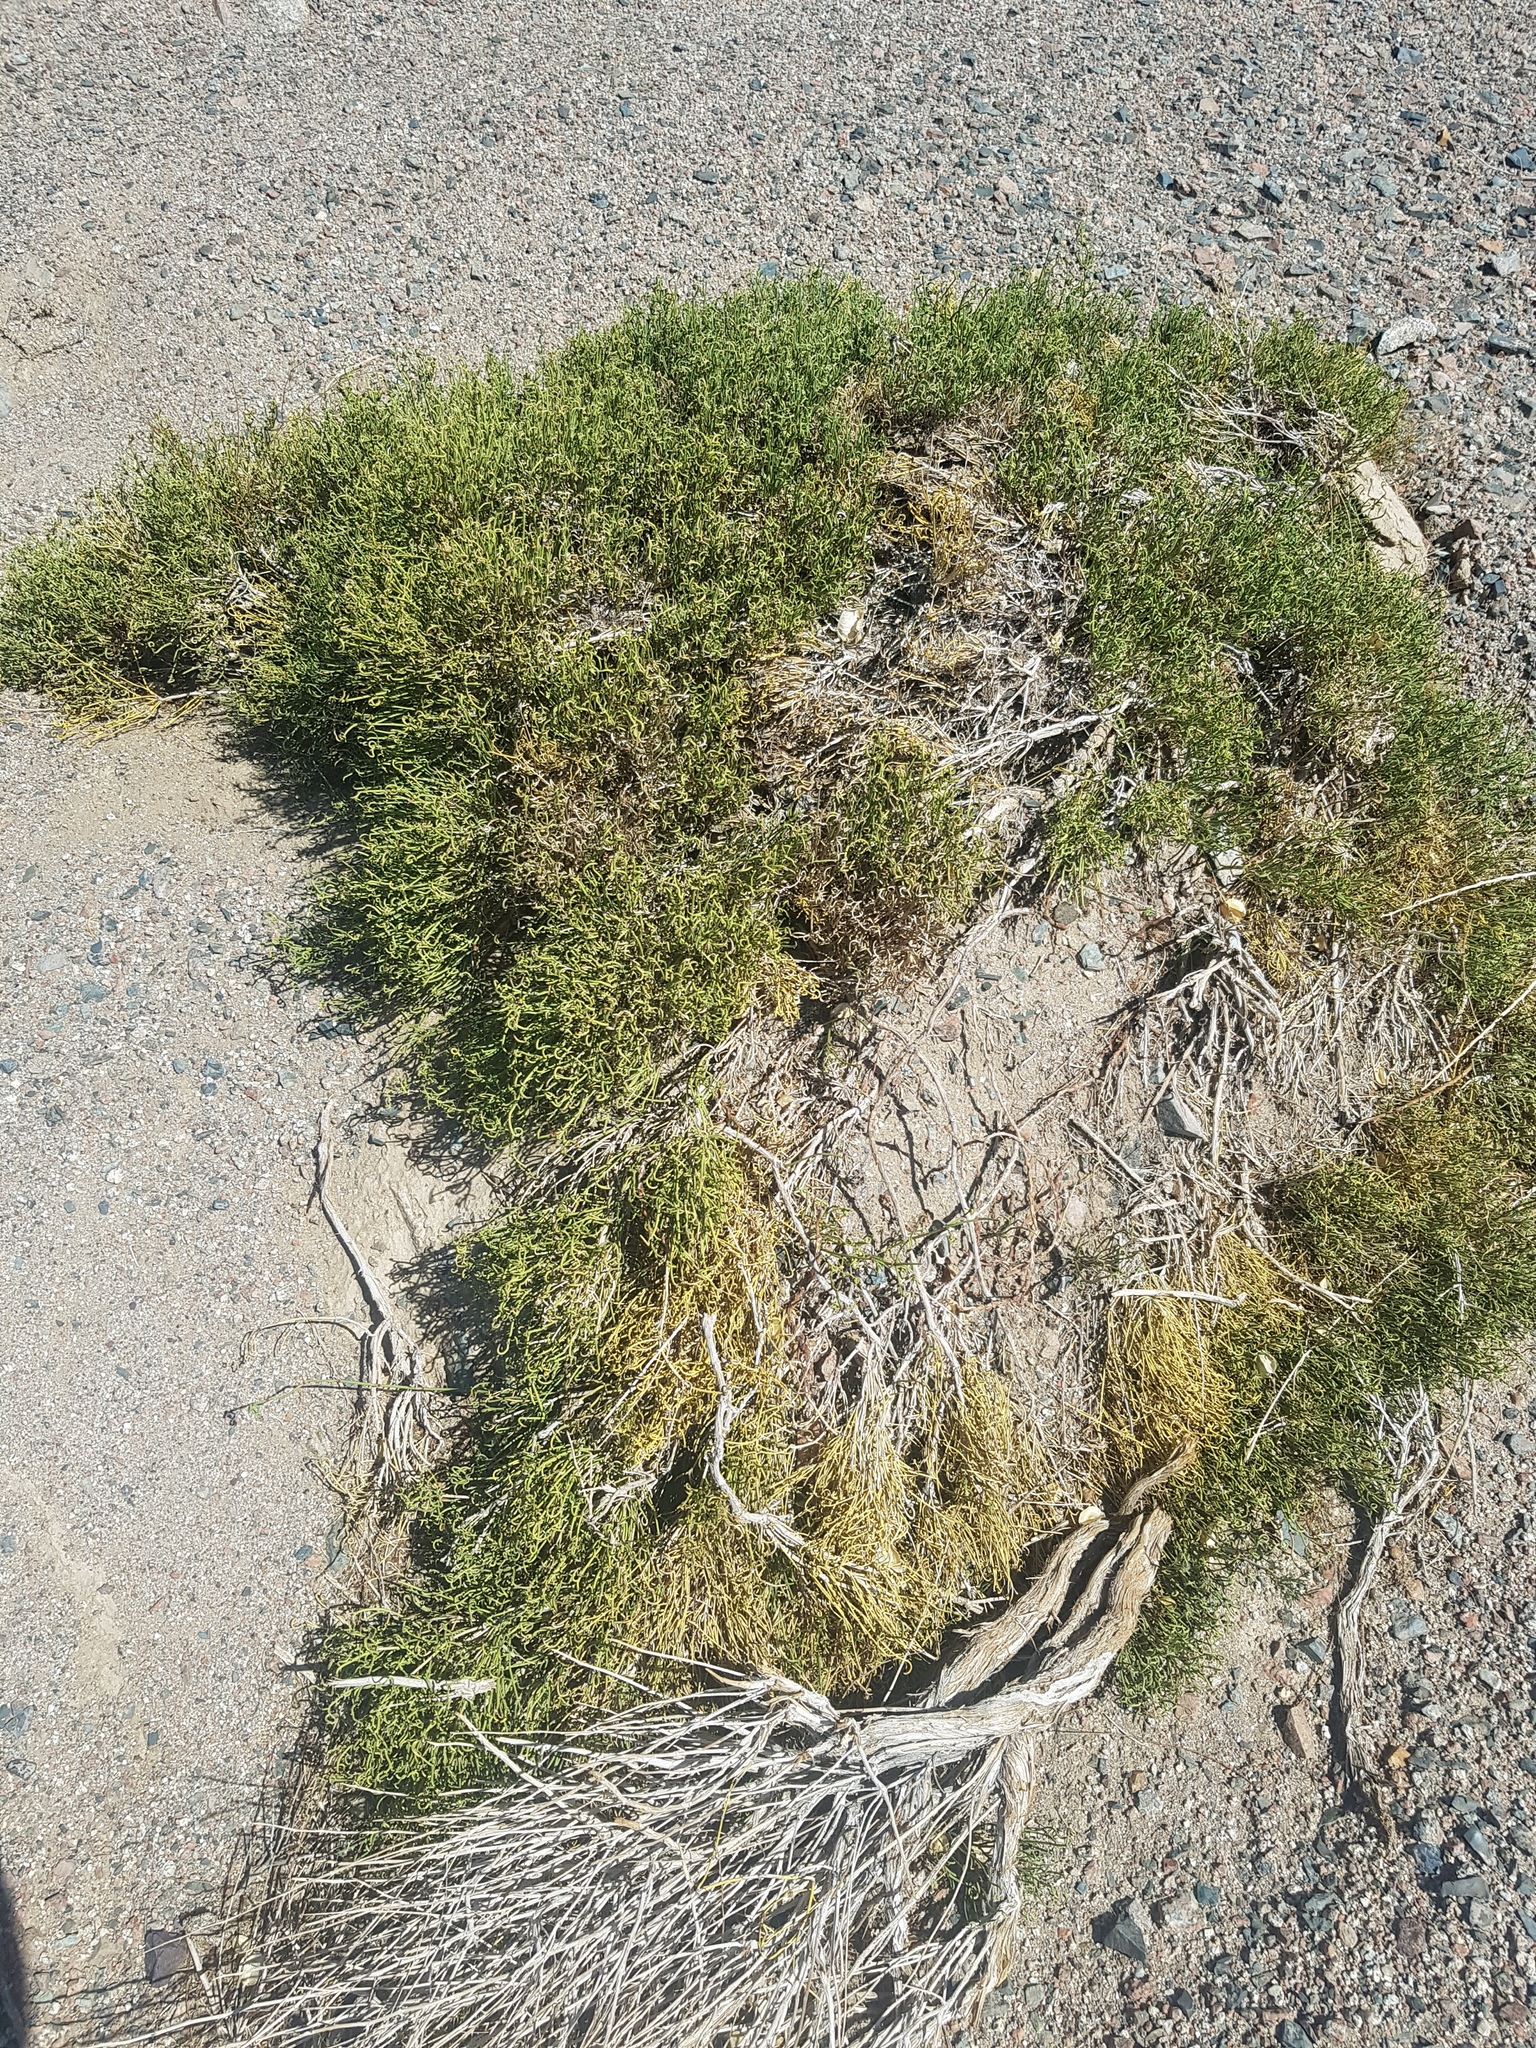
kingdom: Plantae
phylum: Tracheophyta
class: Gnetopsida
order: Ephedrales
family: Ephedraceae
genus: Ephedra
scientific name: Ephedra przewalskii
